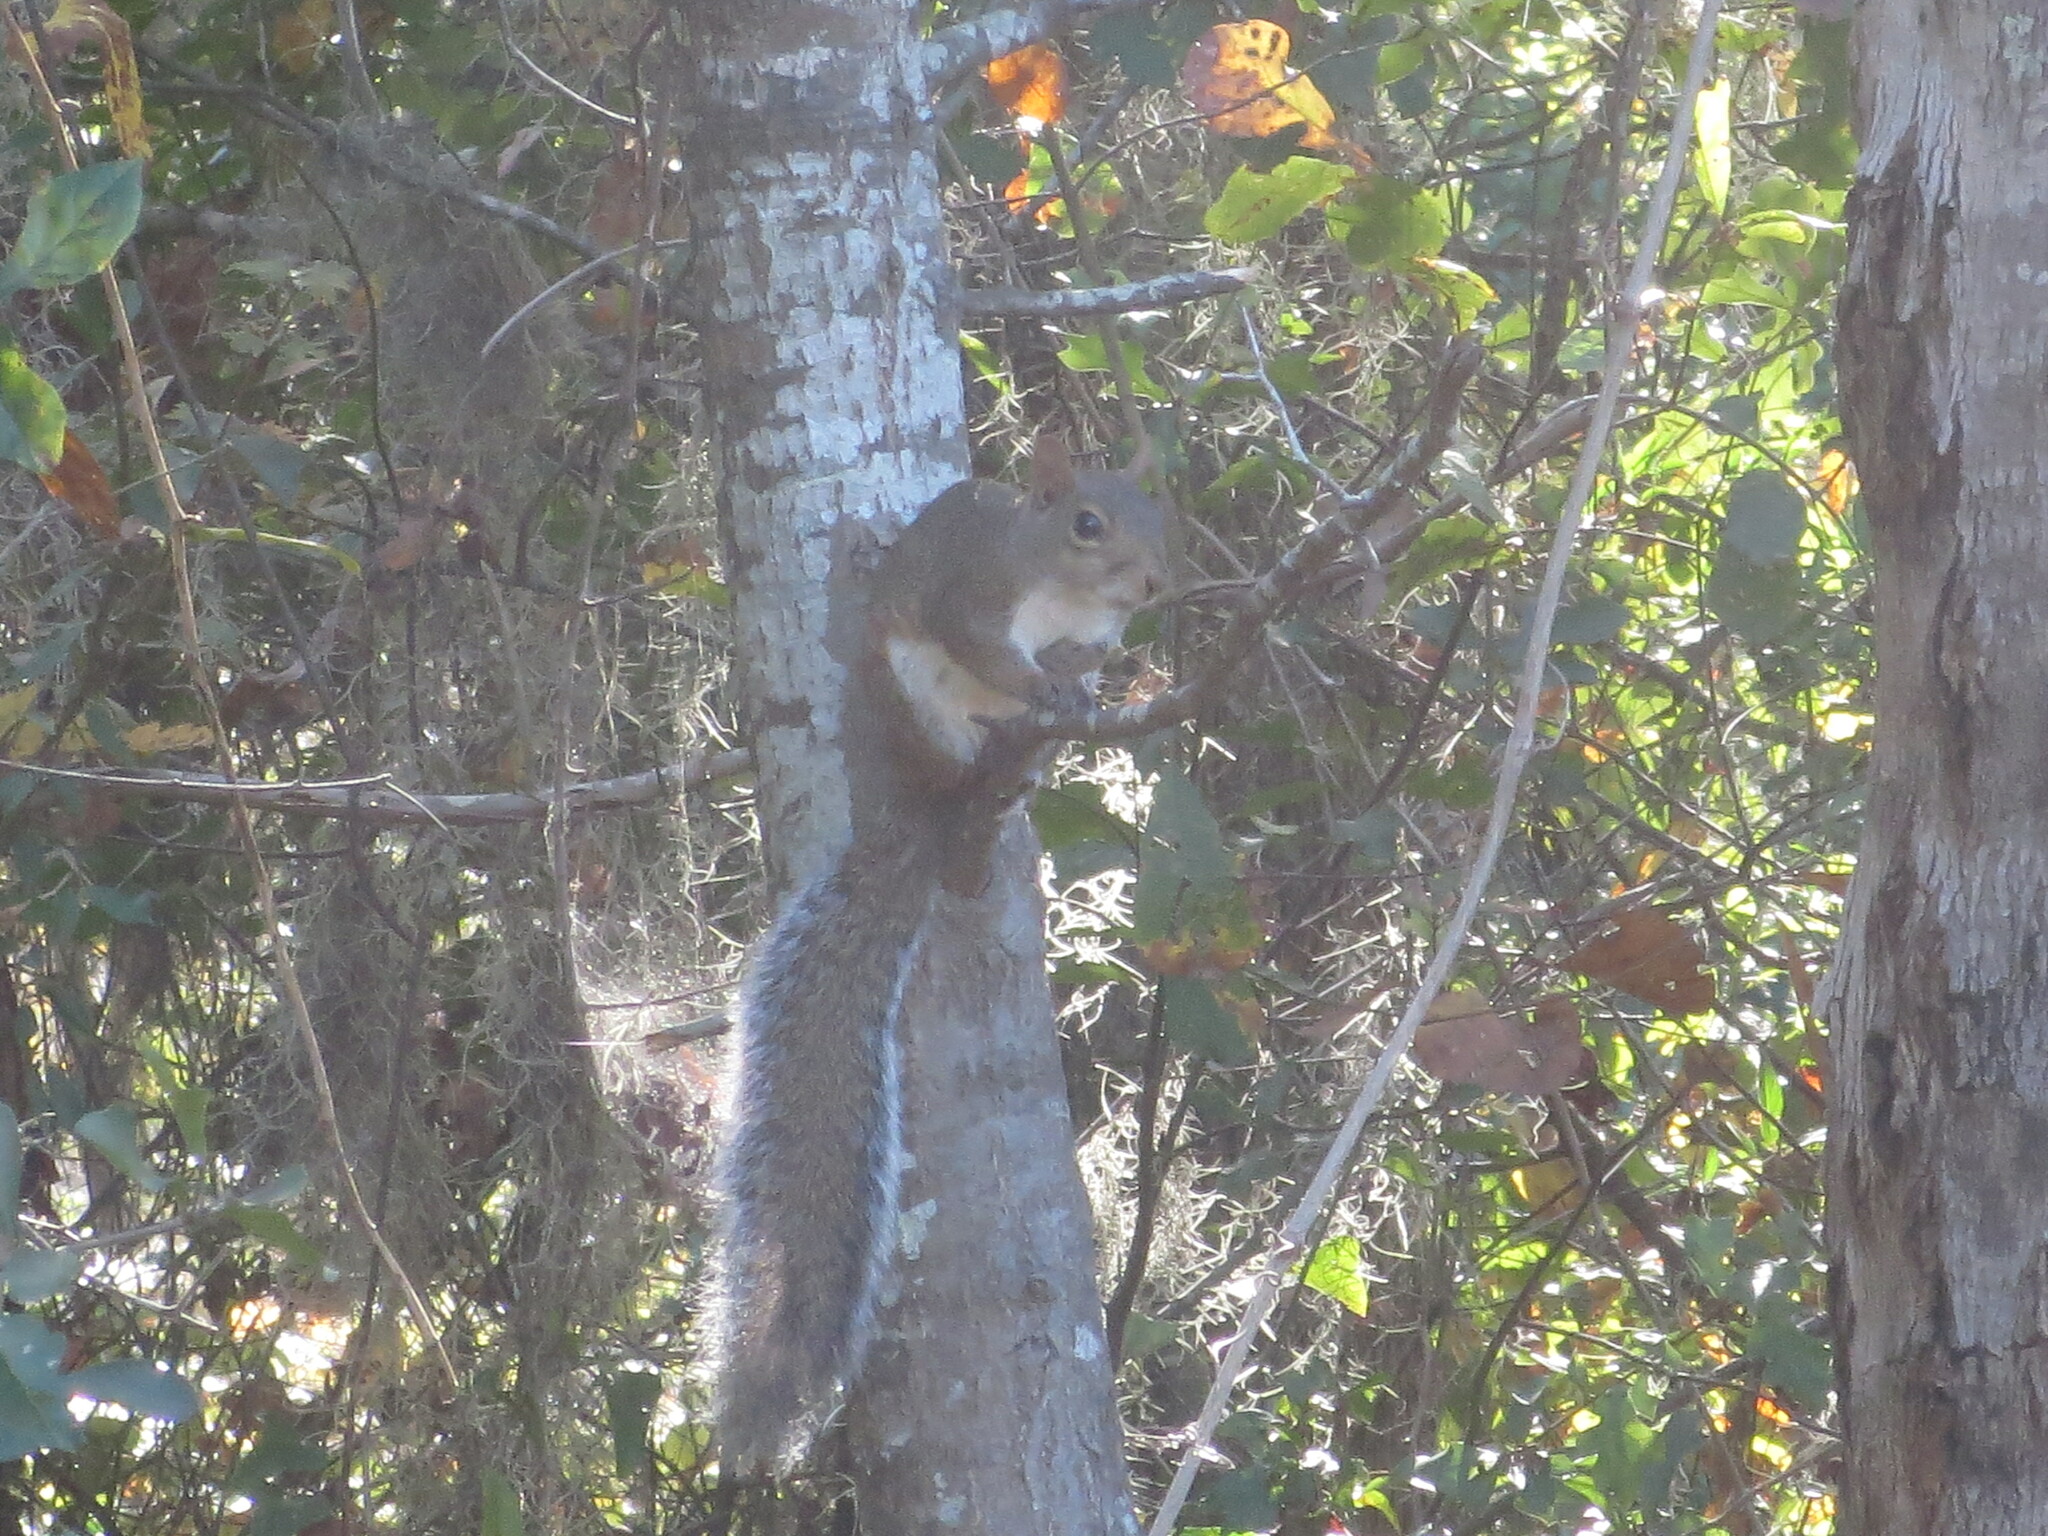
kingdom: Animalia
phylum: Chordata
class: Mammalia
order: Rodentia
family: Sciuridae
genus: Sciurus
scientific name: Sciurus carolinensis
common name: Eastern gray squirrel
